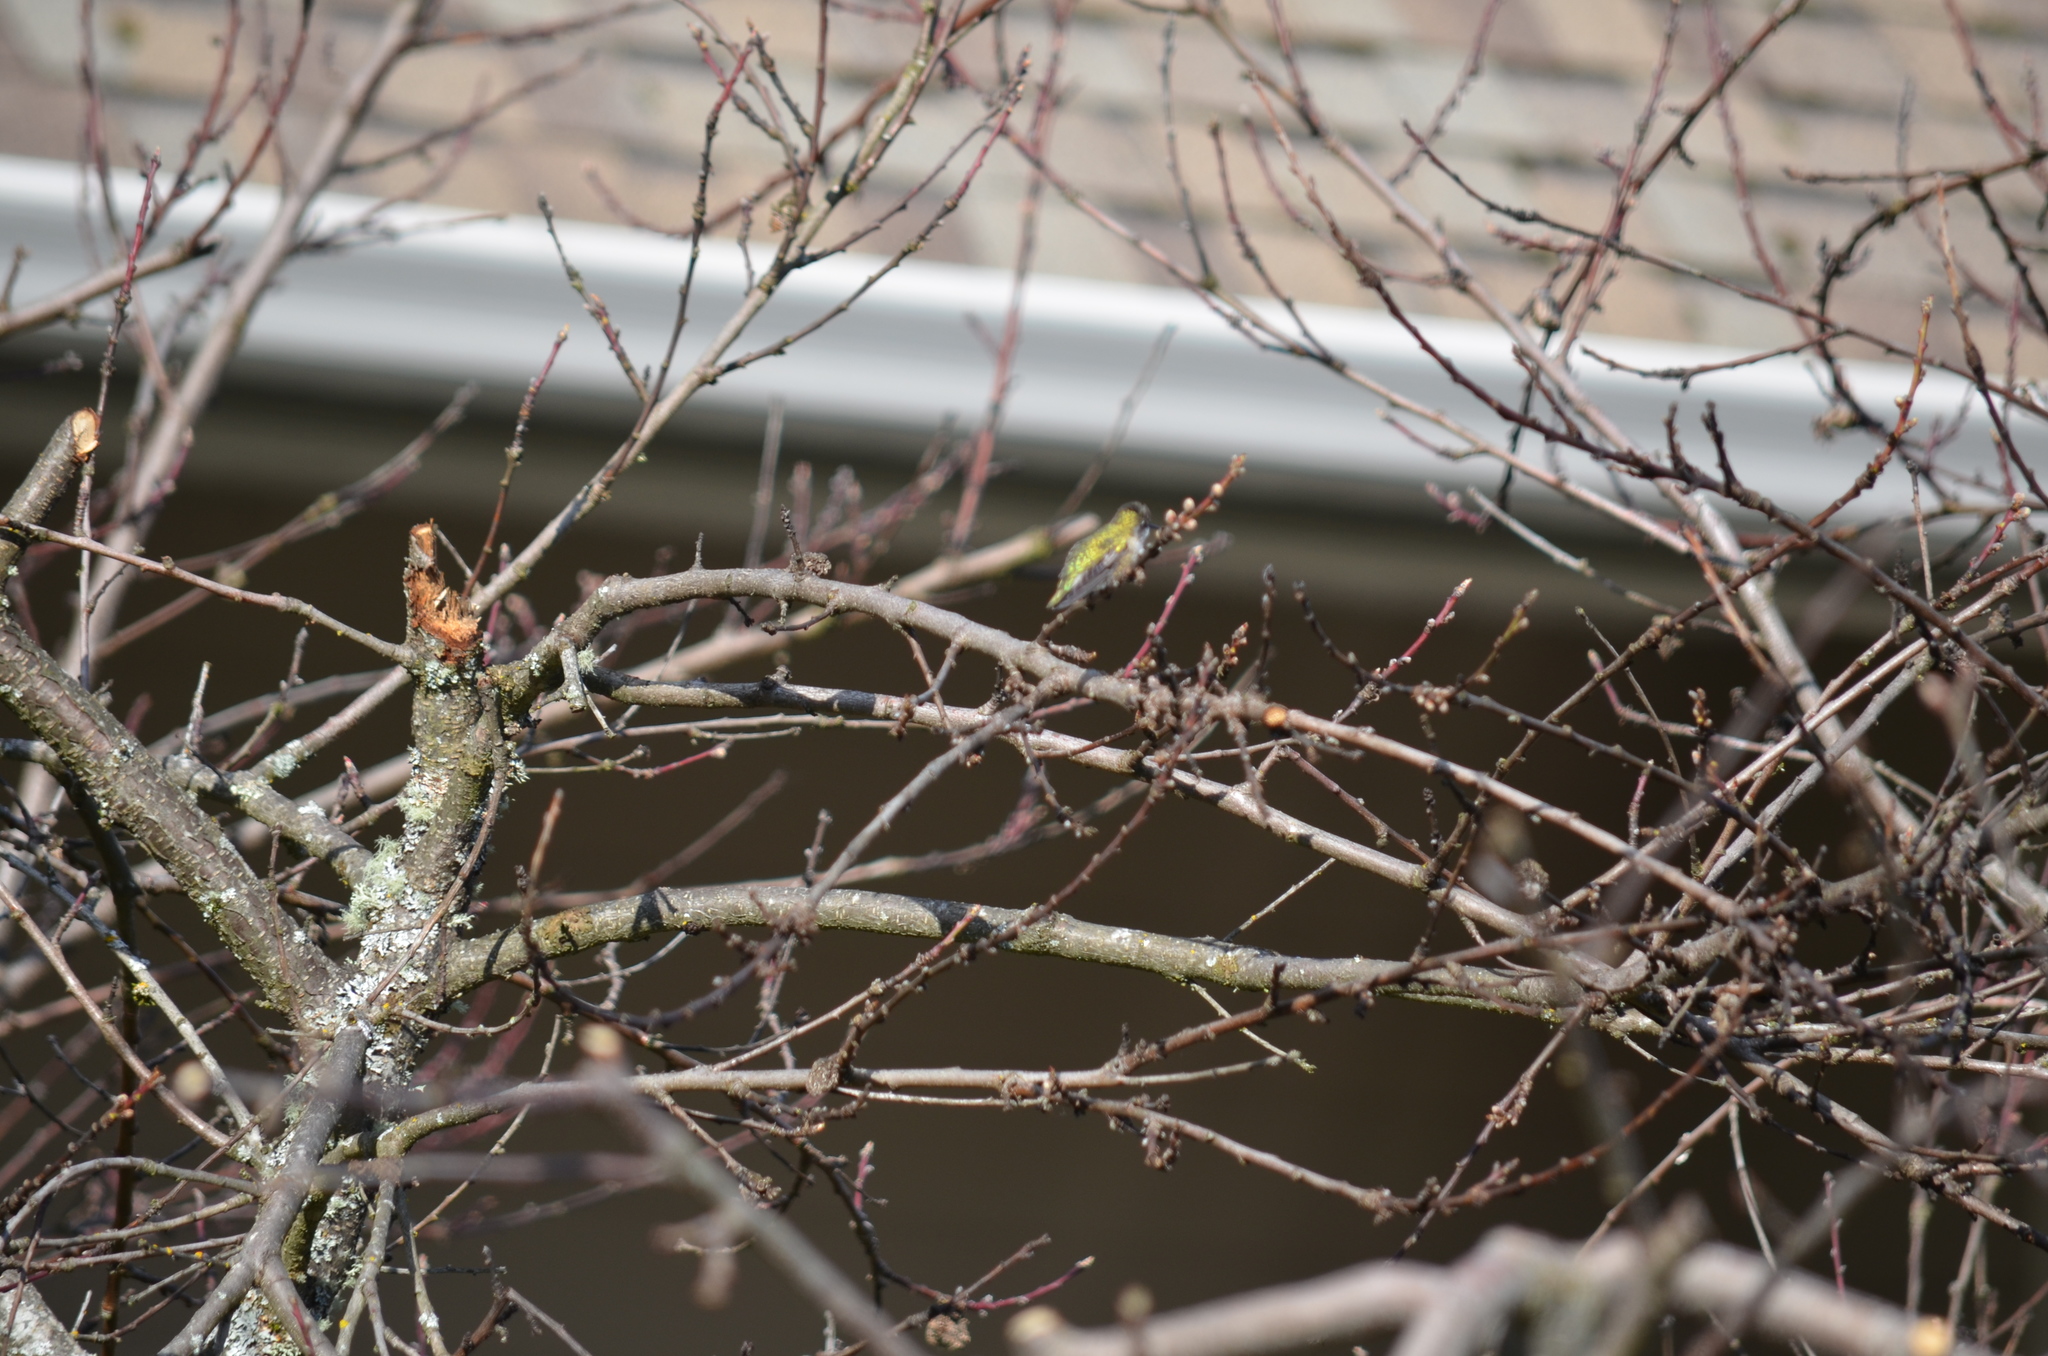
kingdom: Animalia
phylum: Chordata
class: Aves
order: Apodiformes
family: Trochilidae
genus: Calypte
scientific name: Calypte anna
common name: Anna's hummingbird
